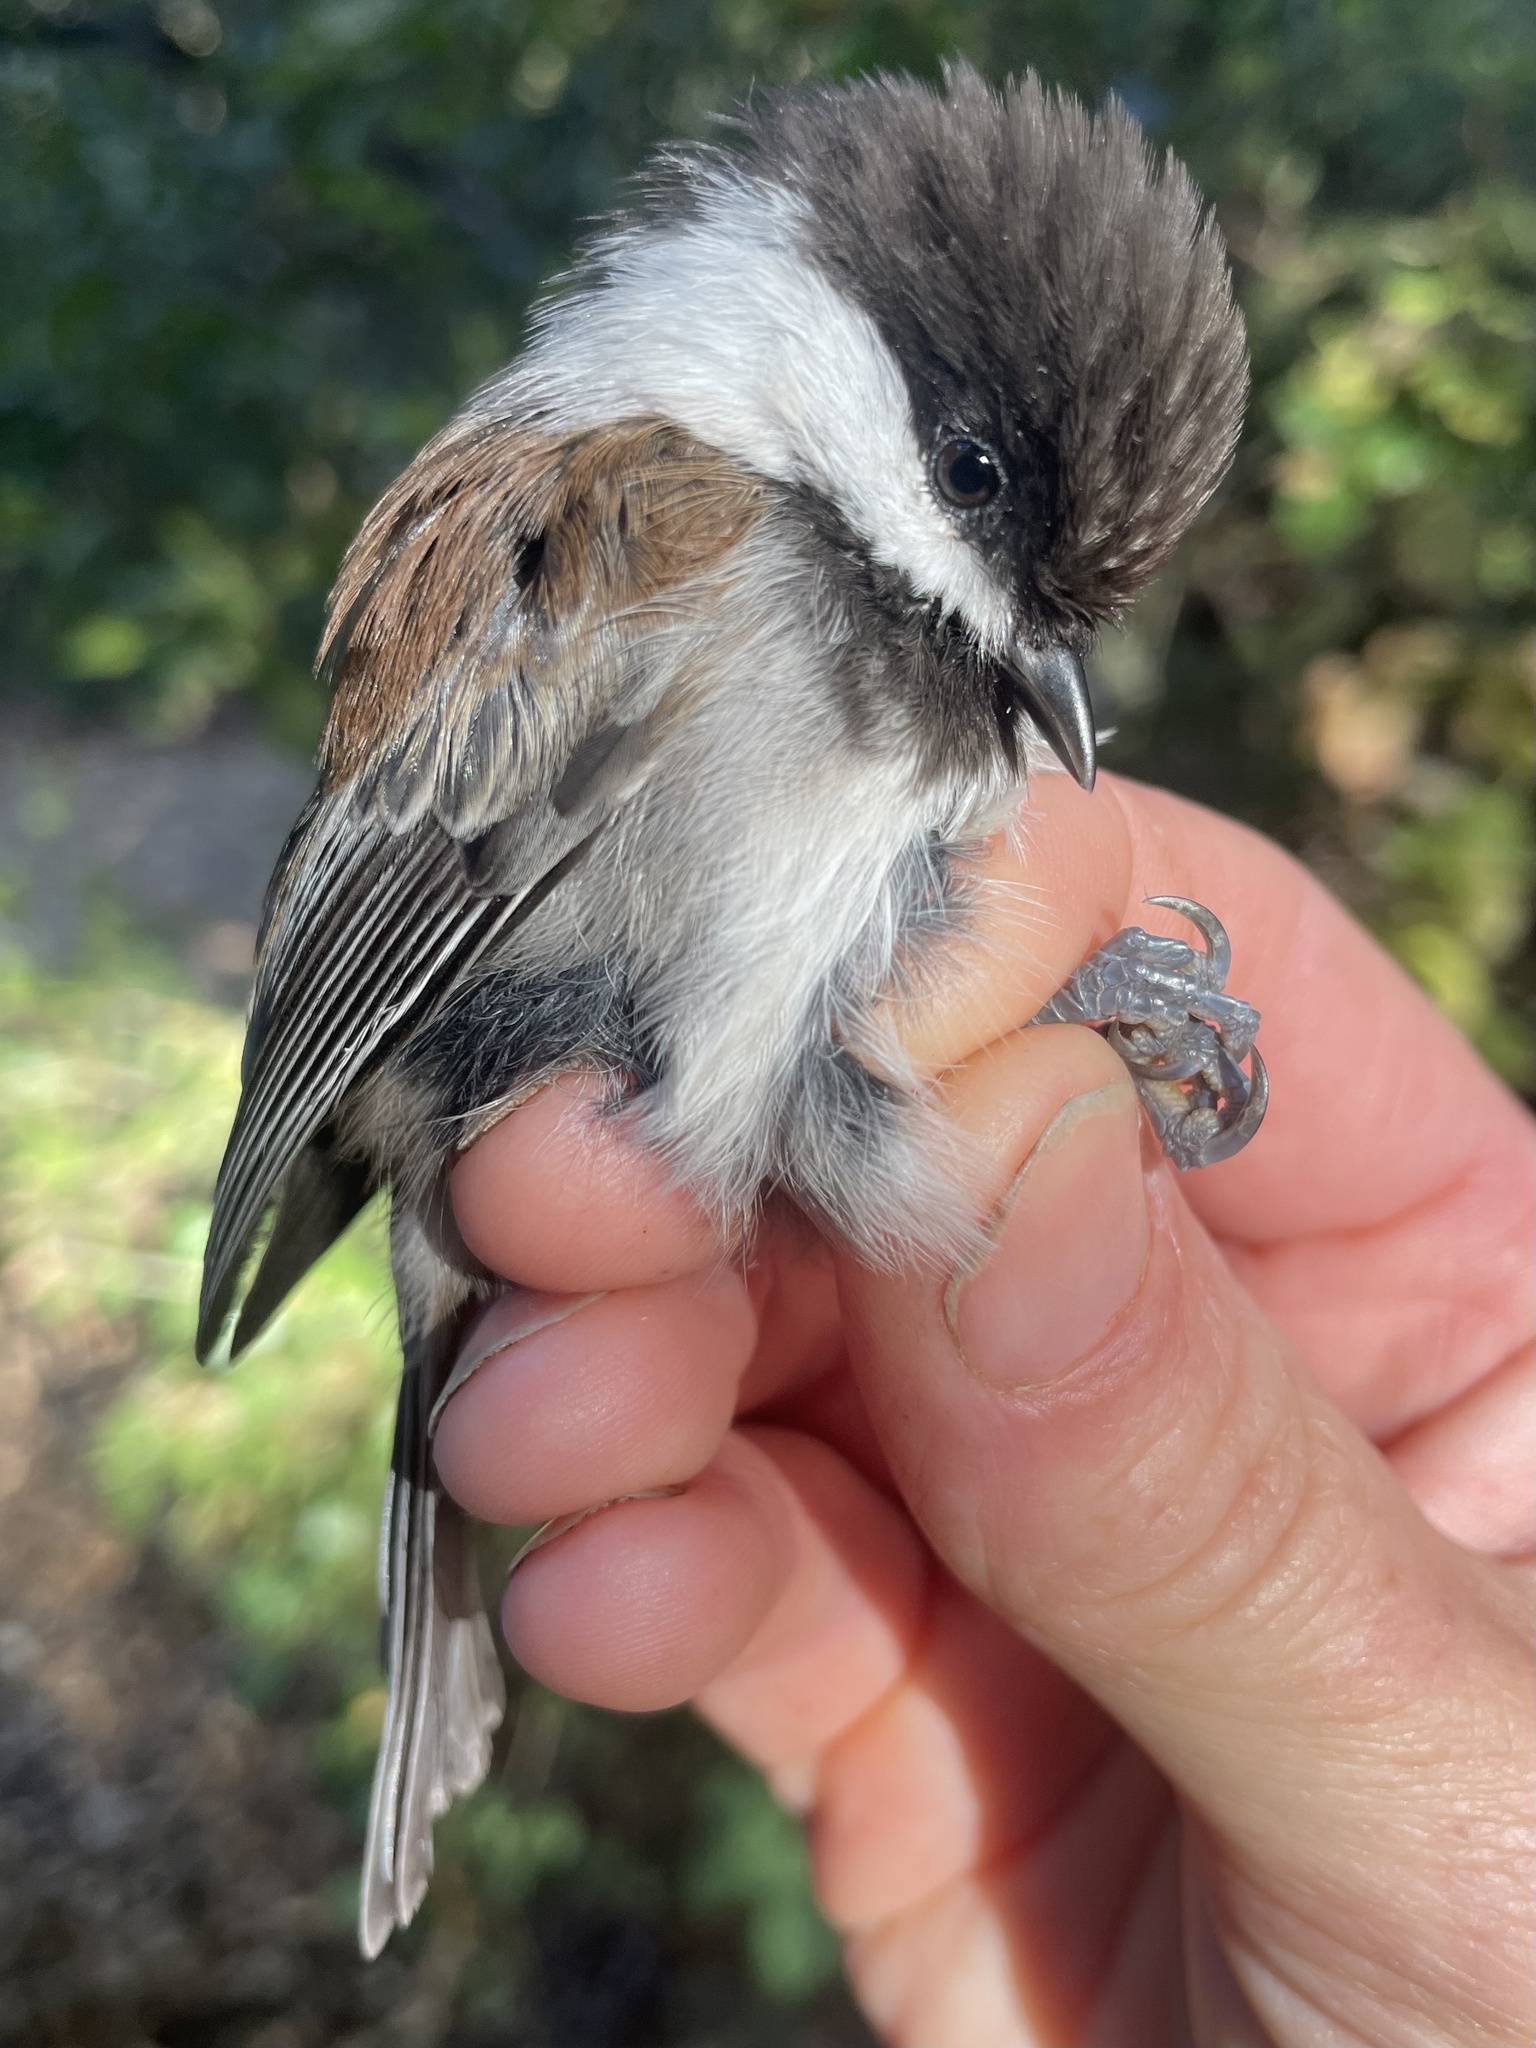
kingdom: Animalia
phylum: Chordata
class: Aves
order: Passeriformes
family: Paridae
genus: Poecile
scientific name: Poecile rufescens
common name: Chestnut-backed chickadee
